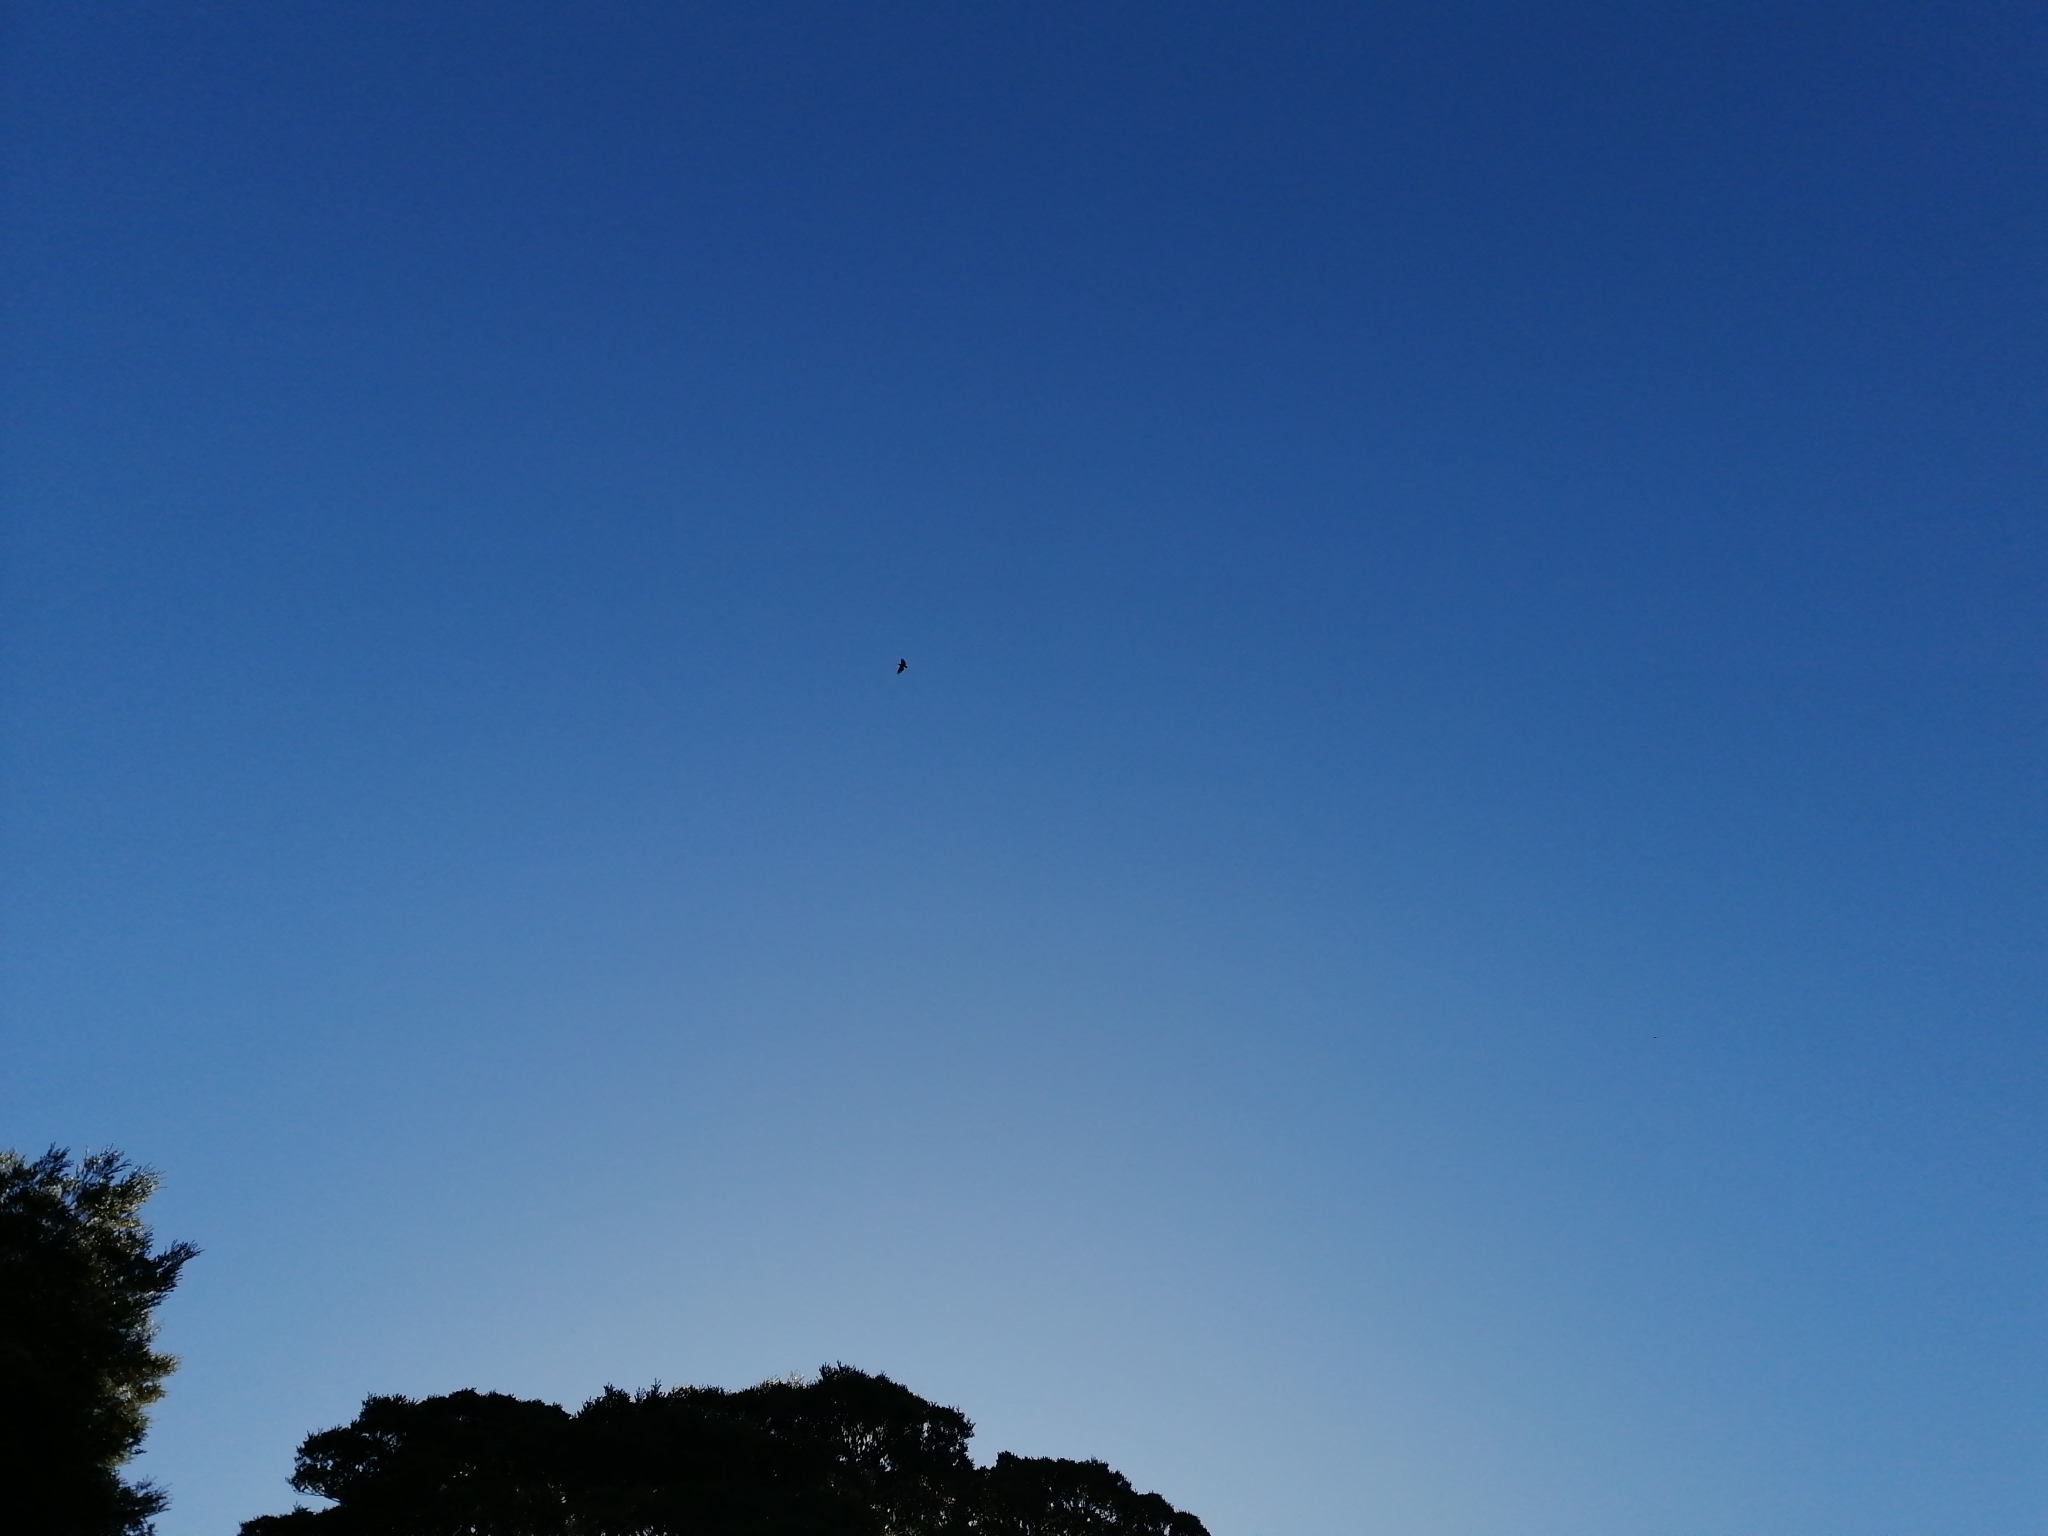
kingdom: Animalia
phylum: Chordata
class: Aves
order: Psittaciformes
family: Psittacidae
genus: Nestor
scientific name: Nestor notabilis
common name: Kea
